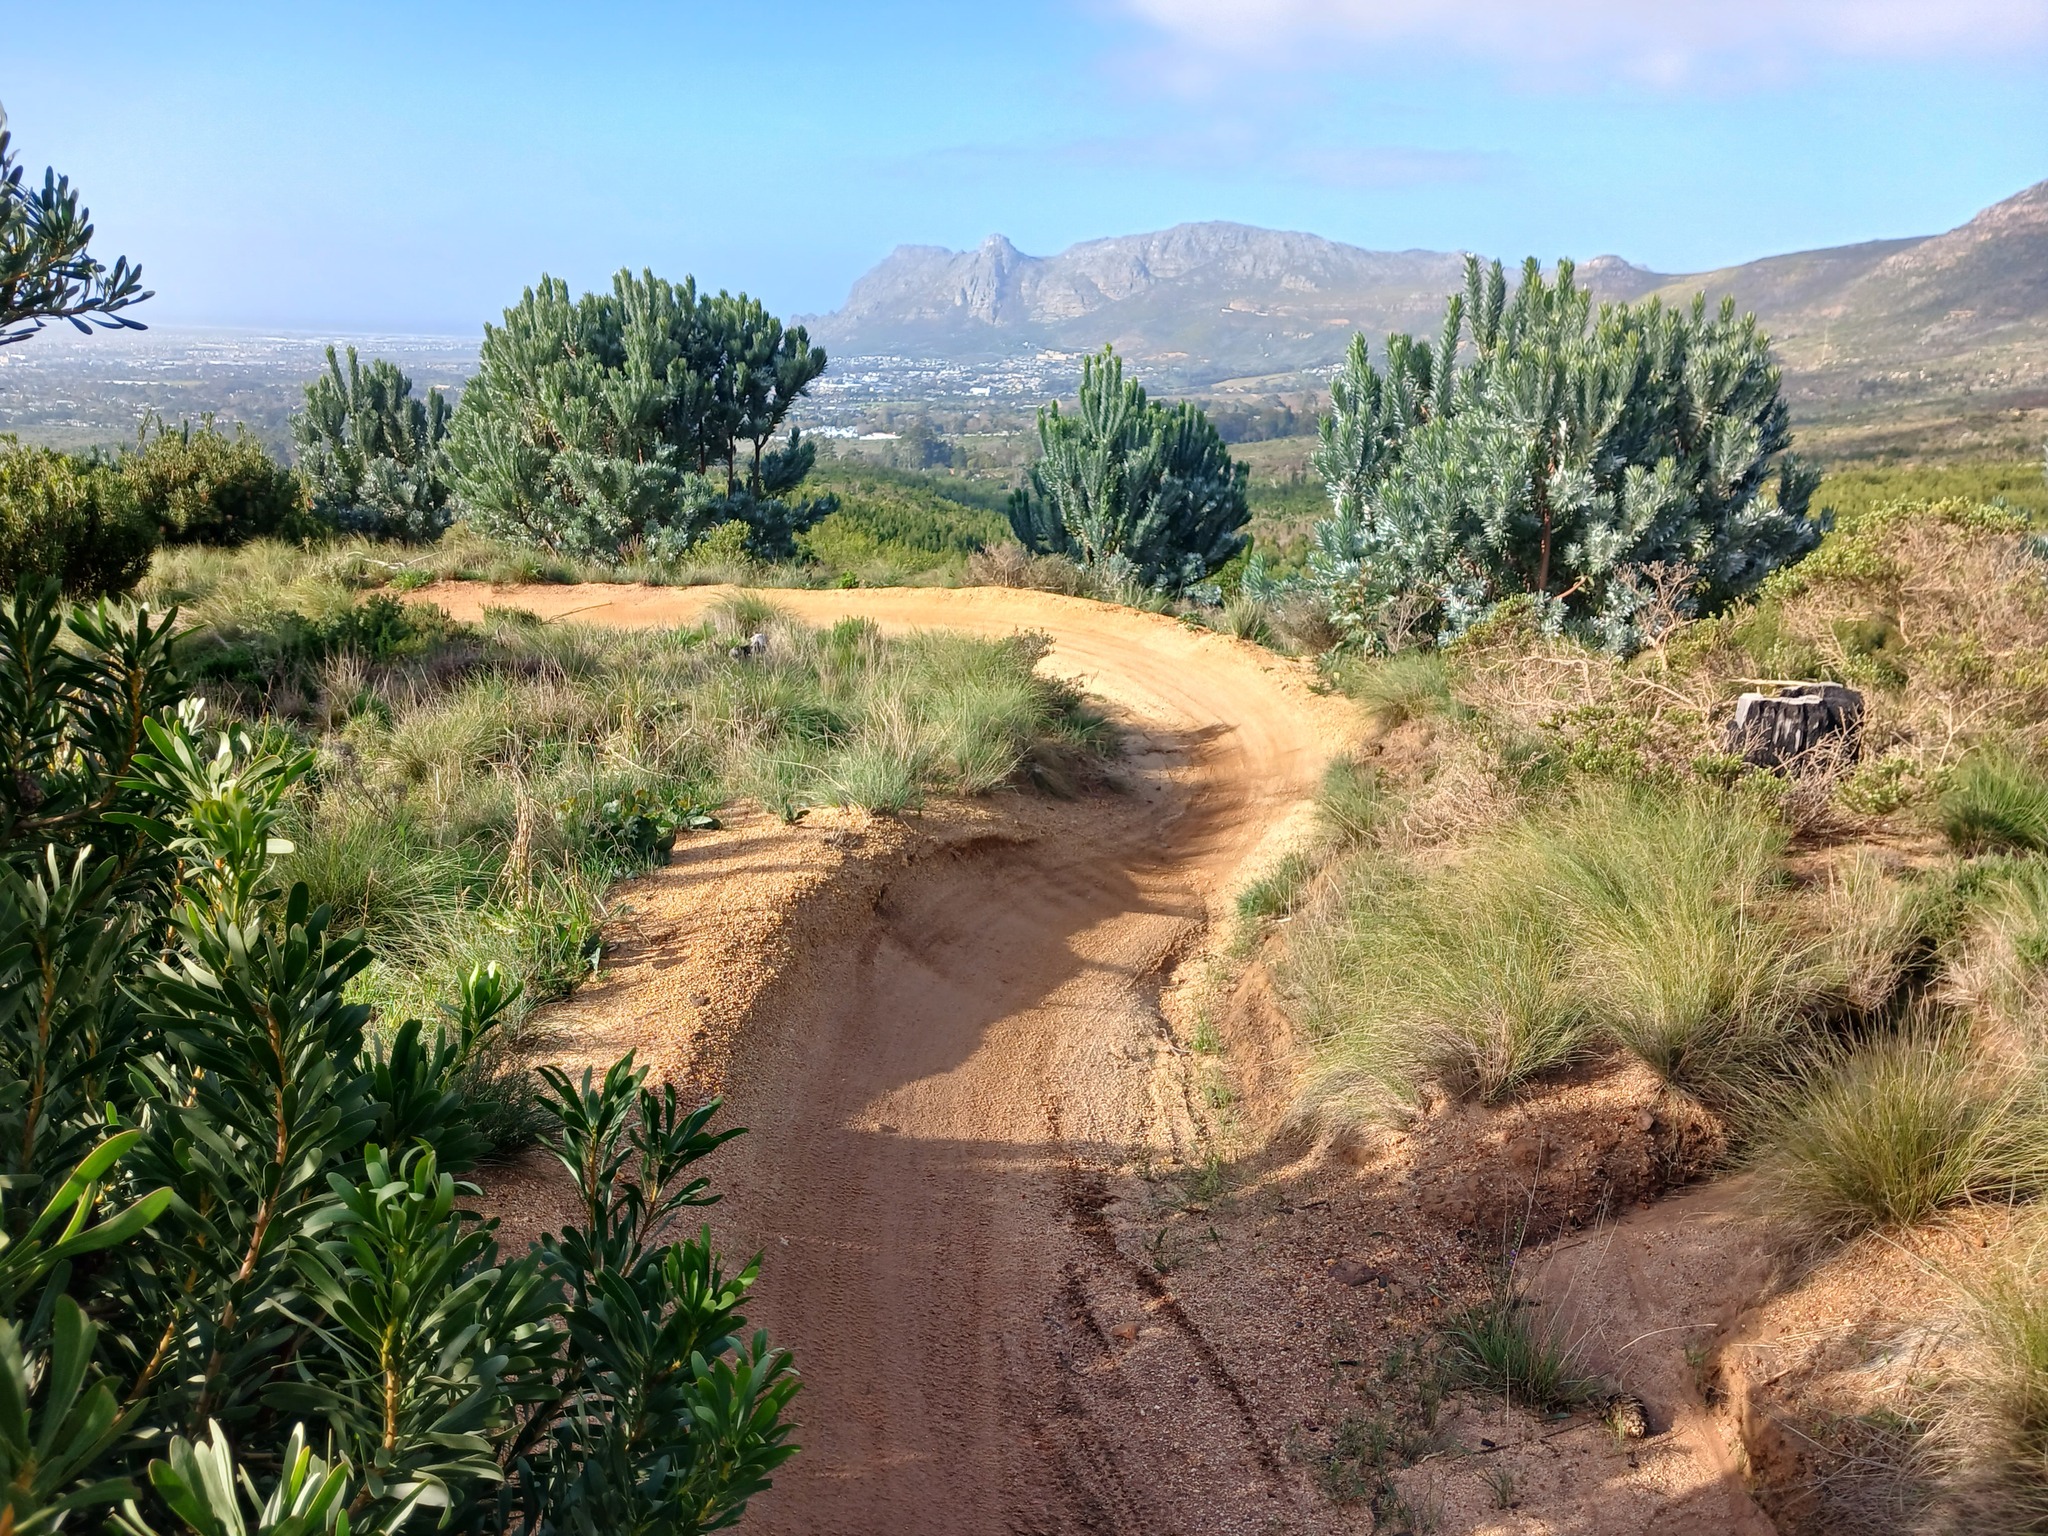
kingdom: Plantae
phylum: Tracheophyta
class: Magnoliopsida
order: Proteales
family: Proteaceae
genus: Leucadendron
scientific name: Leucadendron argenteum
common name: Cape silver tree
